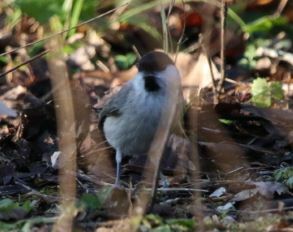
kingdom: Animalia
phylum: Chordata
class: Aves
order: Passeriformes
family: Paridae
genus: Poecile
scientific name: Poecile palustris
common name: Marsh tit
